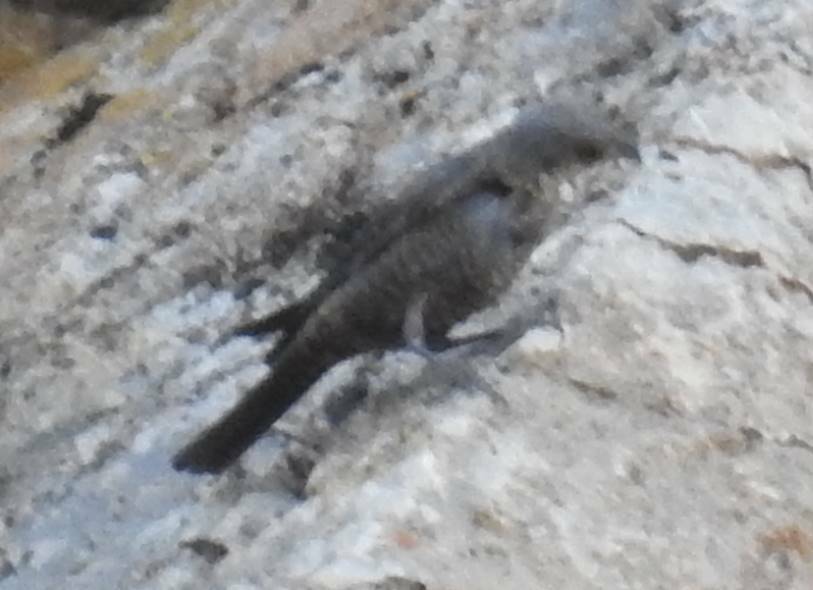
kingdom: Animalia
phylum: Chordata
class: Aves
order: Passeriformes
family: Muscicapidae
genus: Monticola
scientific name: Monticola solitarius
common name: Blue rock thrush
